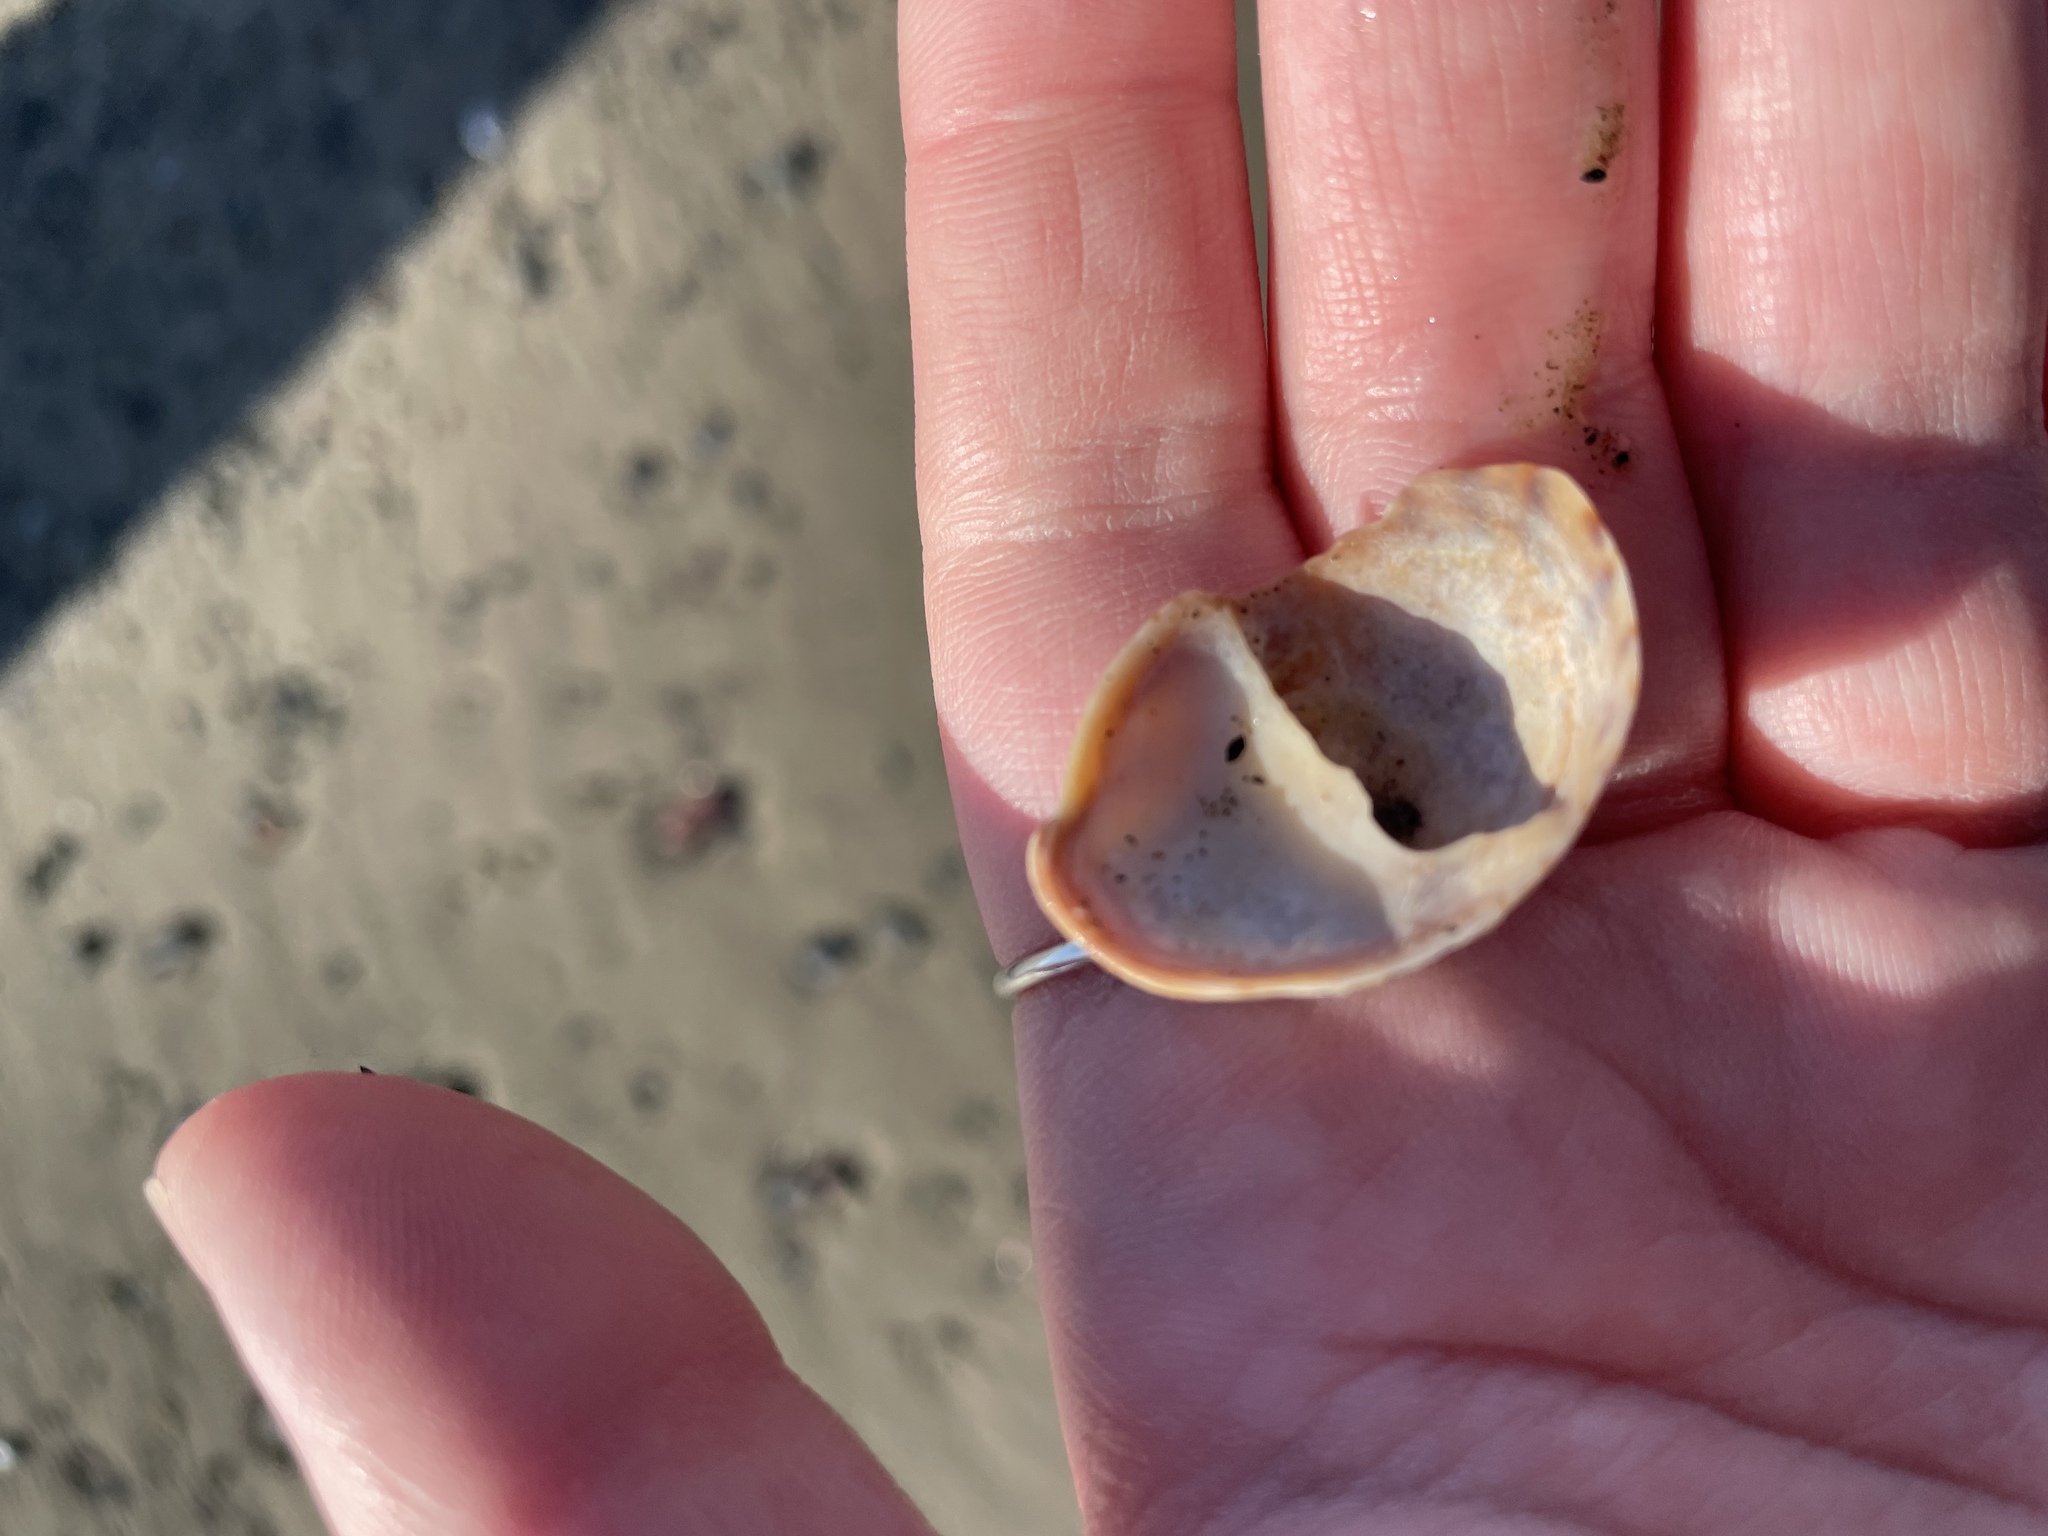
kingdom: Animalia
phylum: Mollusca
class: Gastropoda
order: Littorinimorpha
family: Calyptraeidae
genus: Crepidula
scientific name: Crepidula fornicata
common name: Slipper limpet
